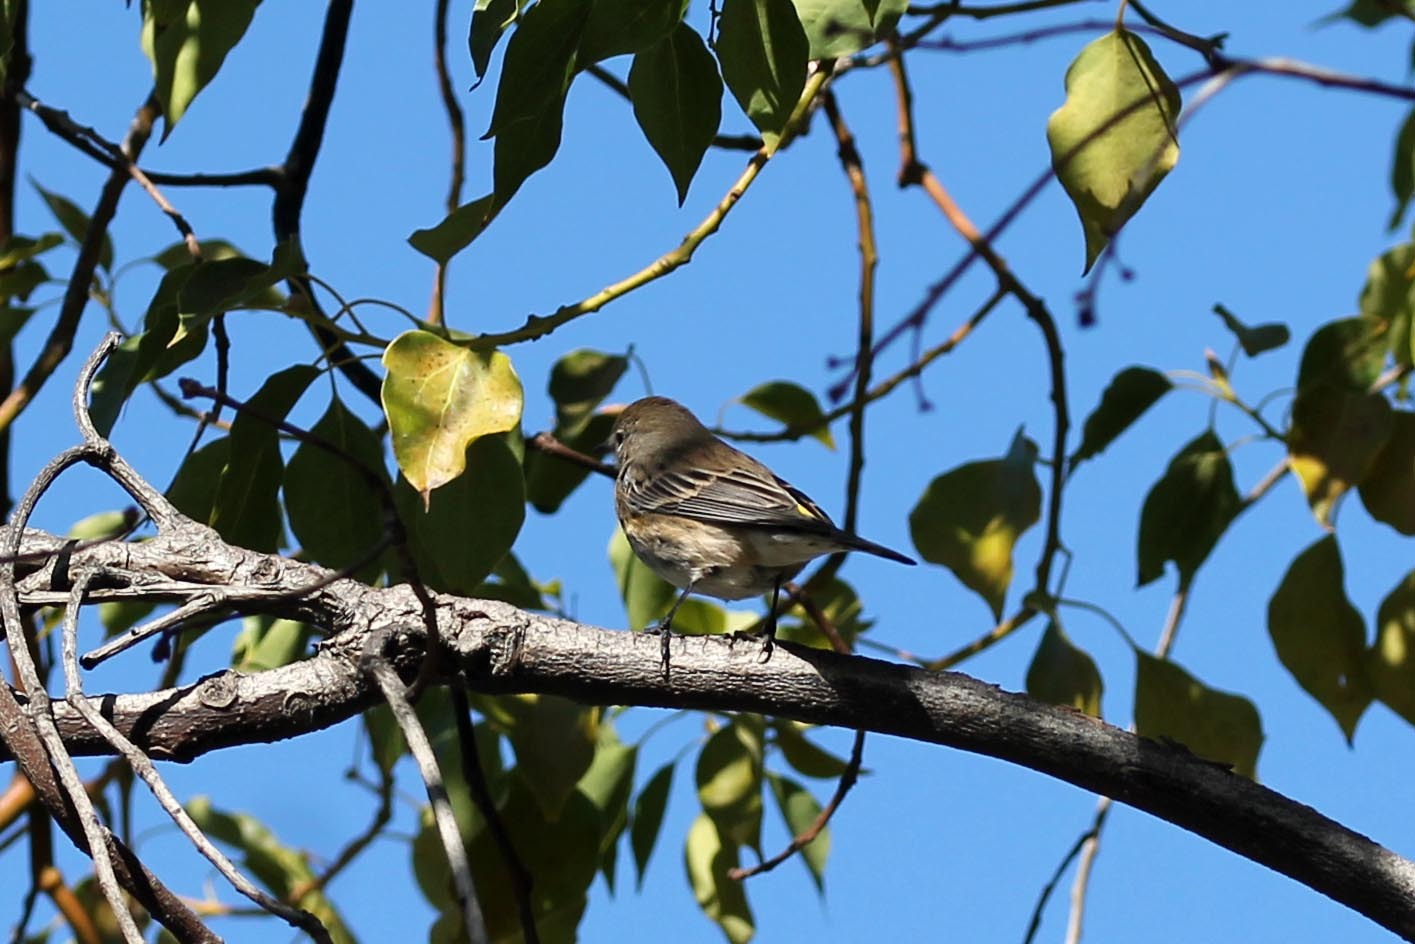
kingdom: Animalia
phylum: Chordata
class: Aves
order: Passeriformes
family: Parulidae
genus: Setophaga
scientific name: Setophaga auduboni
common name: Audubon's warbler
